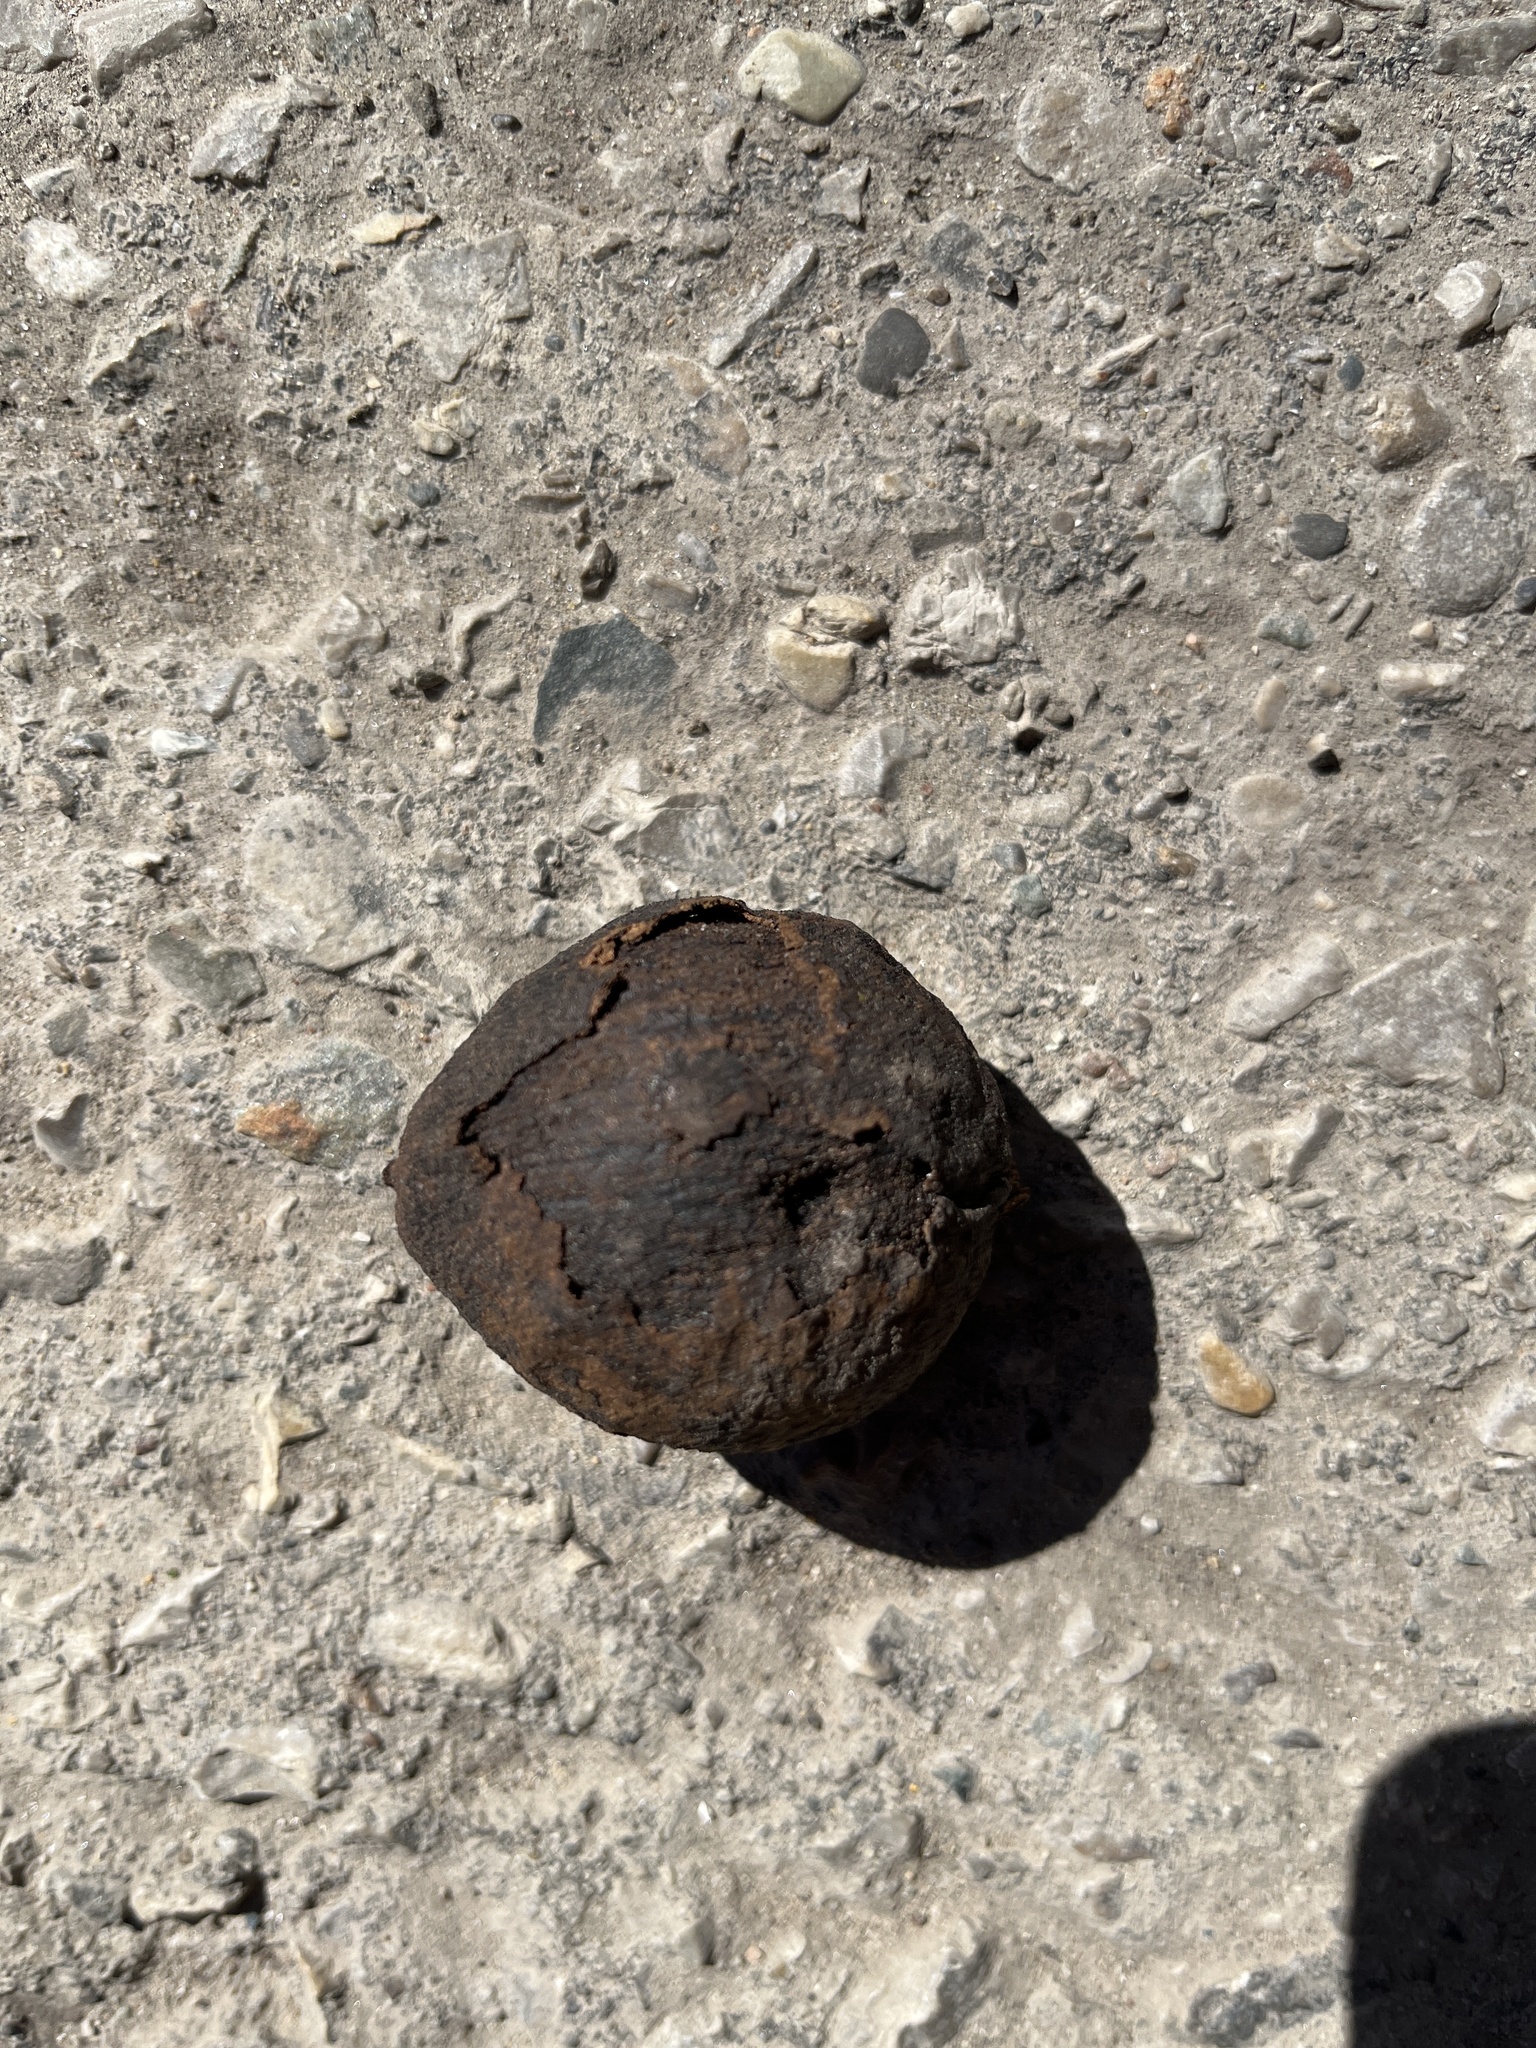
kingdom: Plantae
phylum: Tracheophyta
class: Magnoliopsida
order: Fagales
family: Juglandaceae
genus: Juglans
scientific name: Juglans nigra
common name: Black walnut
